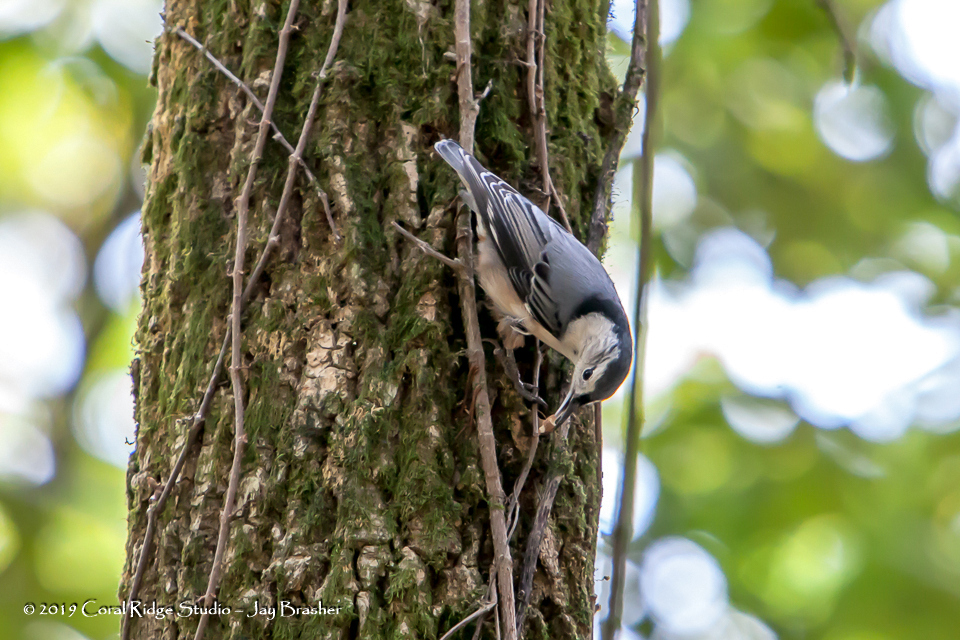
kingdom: Animalia
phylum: Chordata
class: Aves
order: Passeriformes
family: Sittidae
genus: Sitta
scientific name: Sitta carolinensis
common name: White-breasted nuthatch
